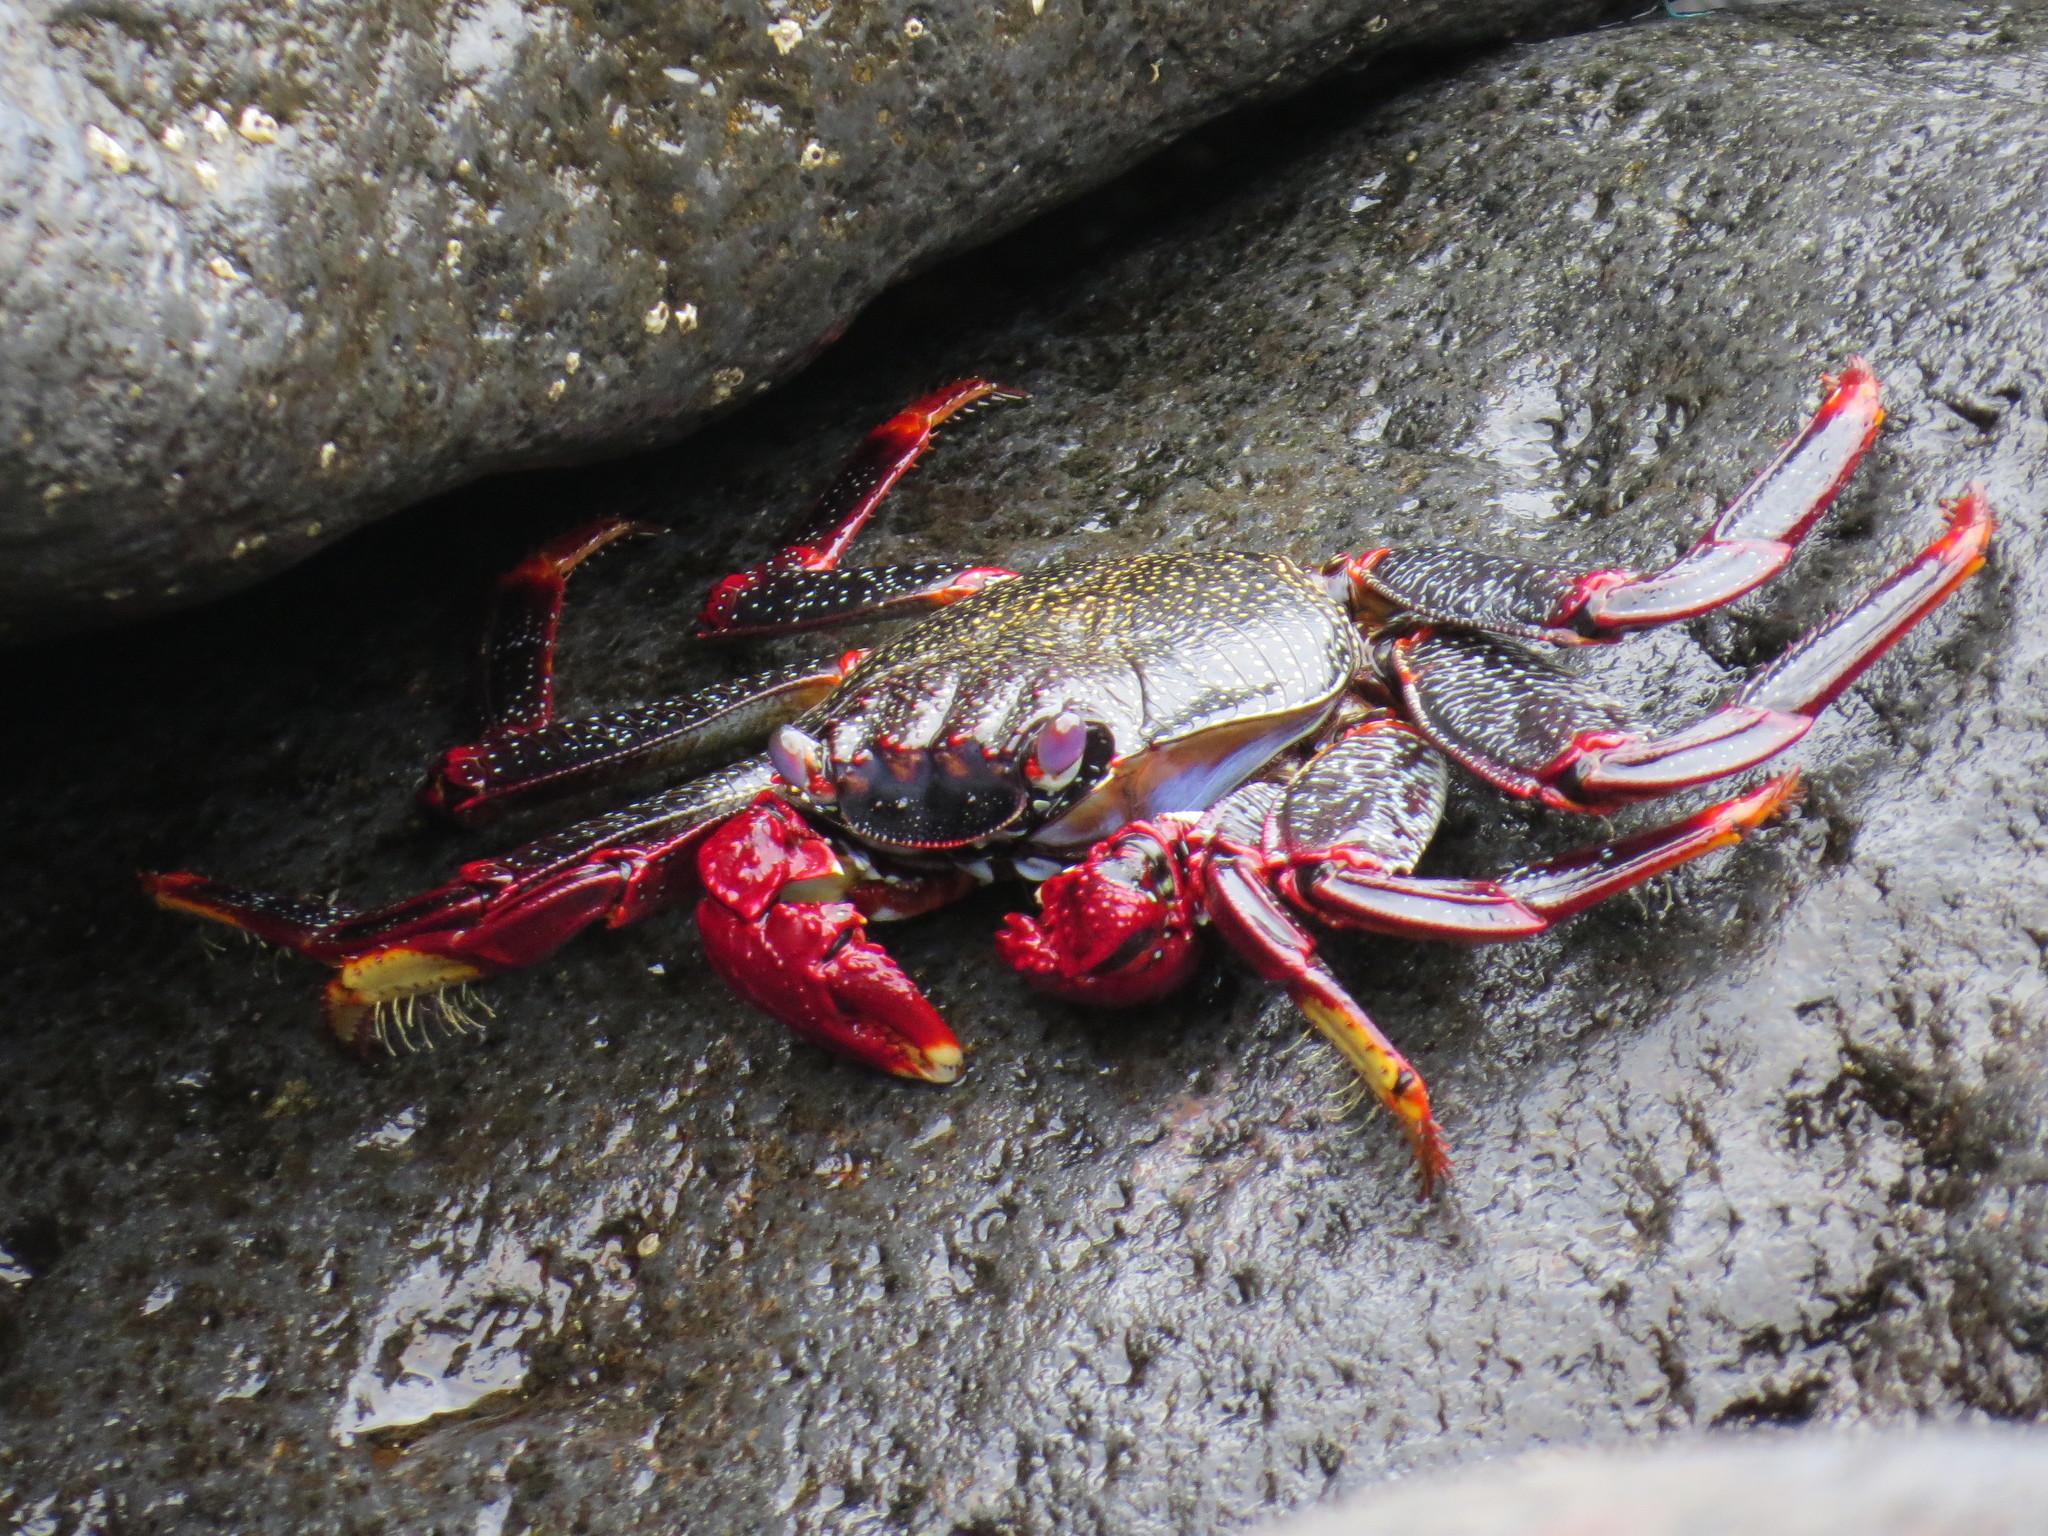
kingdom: Animalia
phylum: Arthropoda
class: Malacostraca
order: Decapoda
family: Grapsidae
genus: Grapsus
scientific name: Grapsus adscensionis
